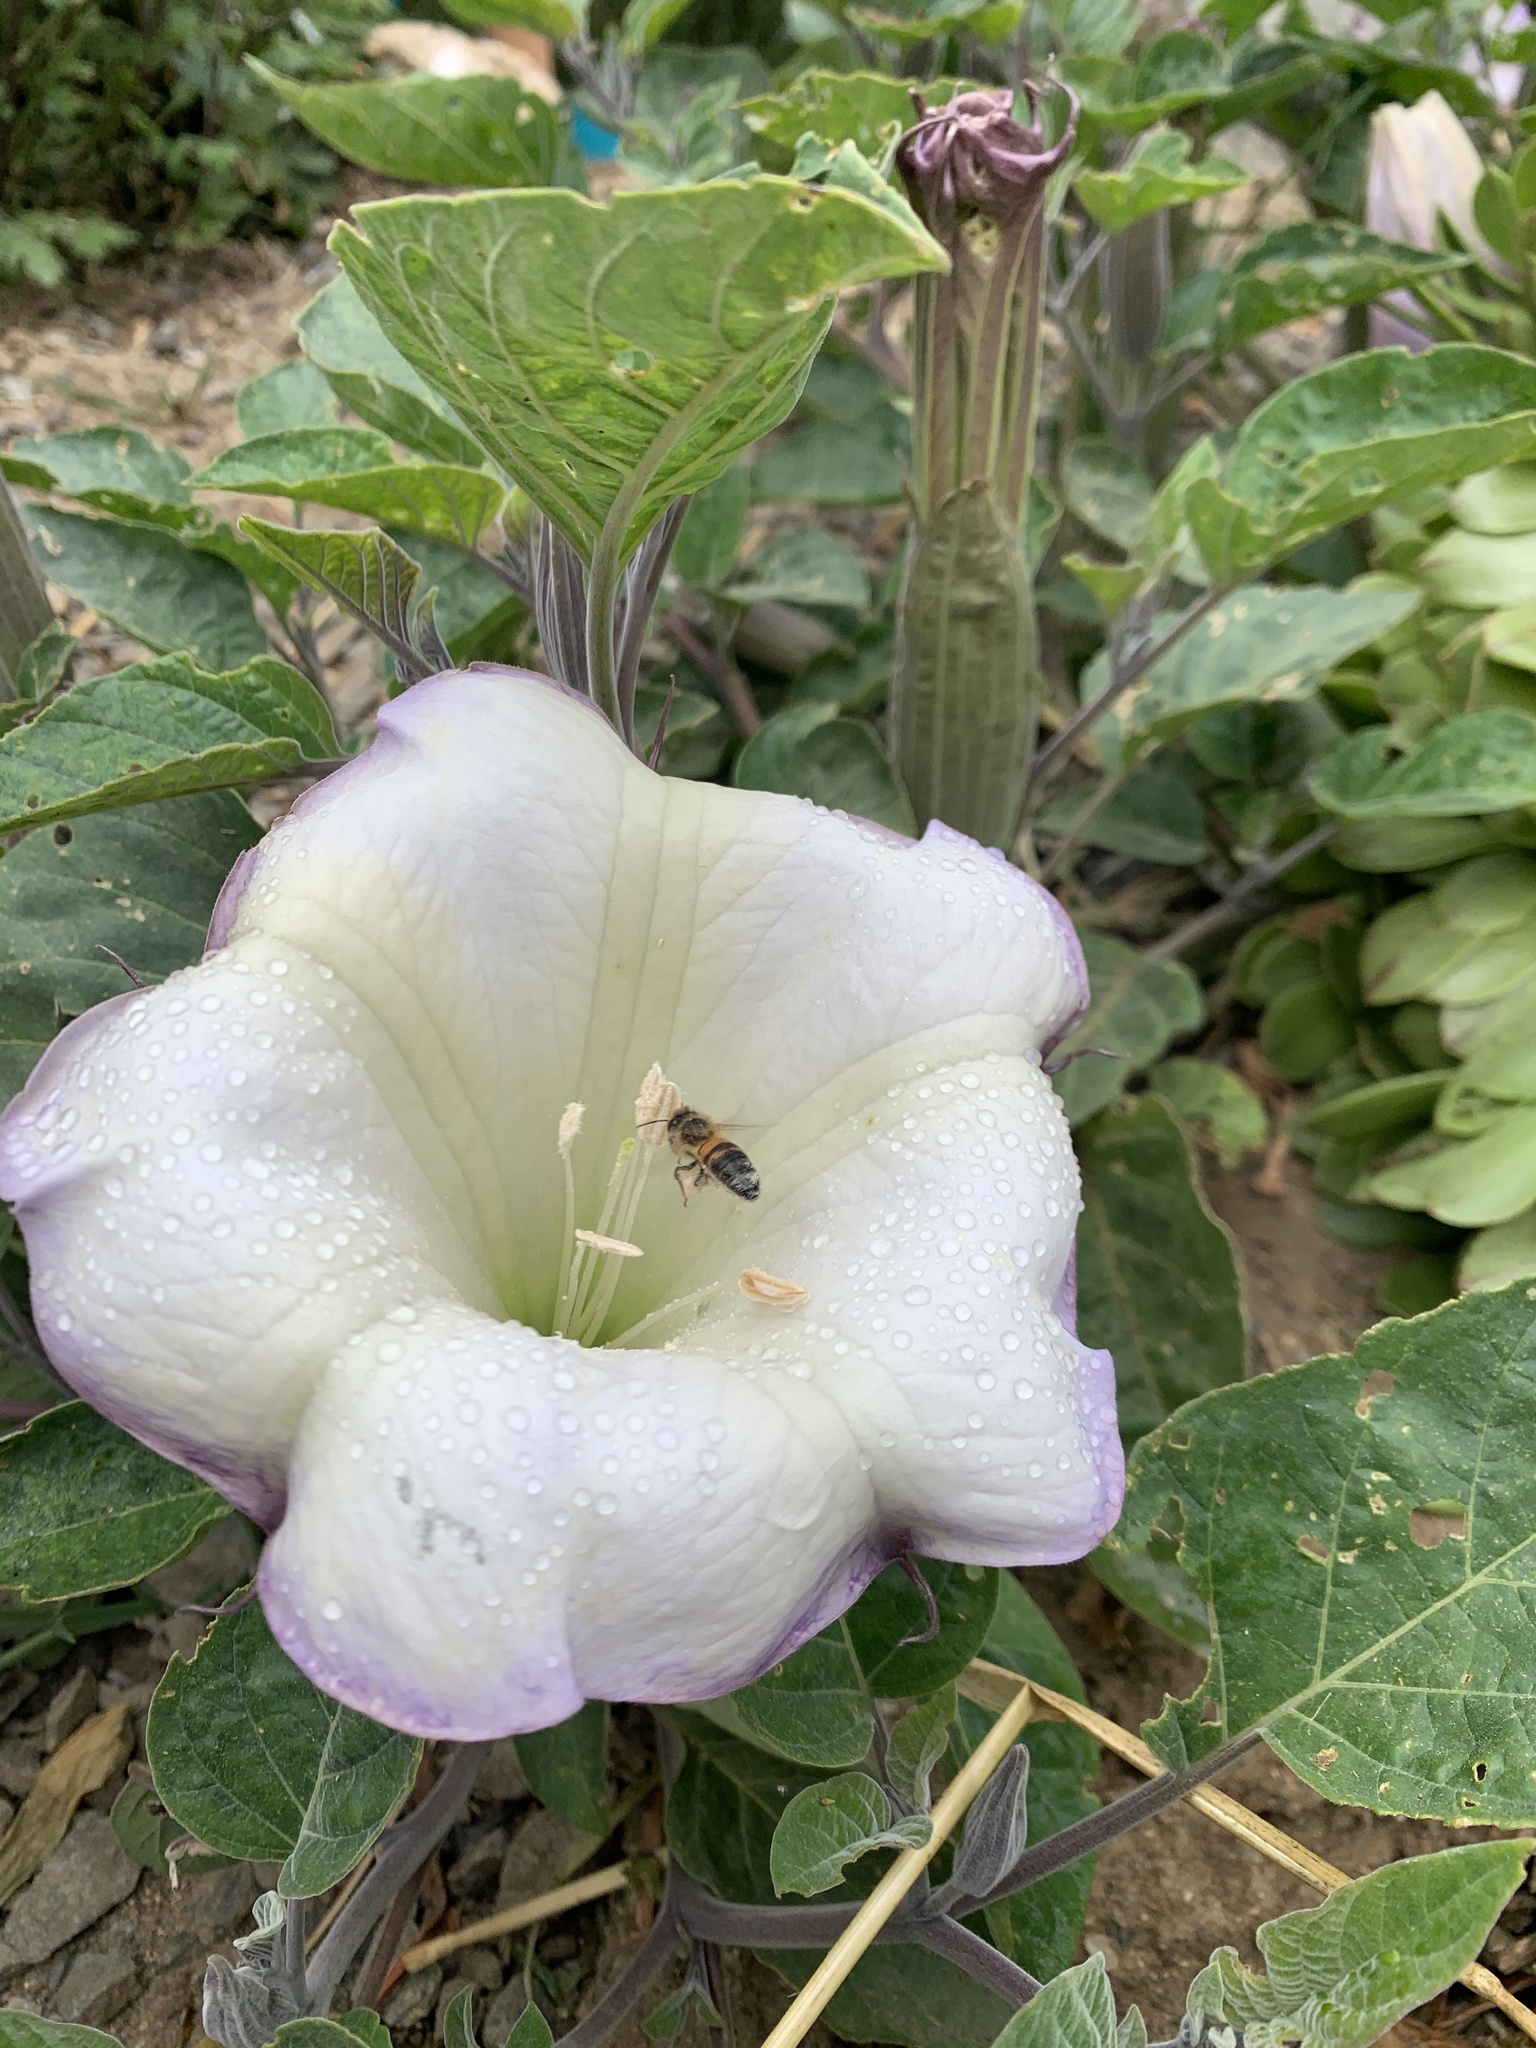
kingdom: Plantae
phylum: Tracheophyta
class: Magnoliopsida
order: Solanales
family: Solanaceae
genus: Datura
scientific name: Datura wrightii
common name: Sacred thorn-apple
